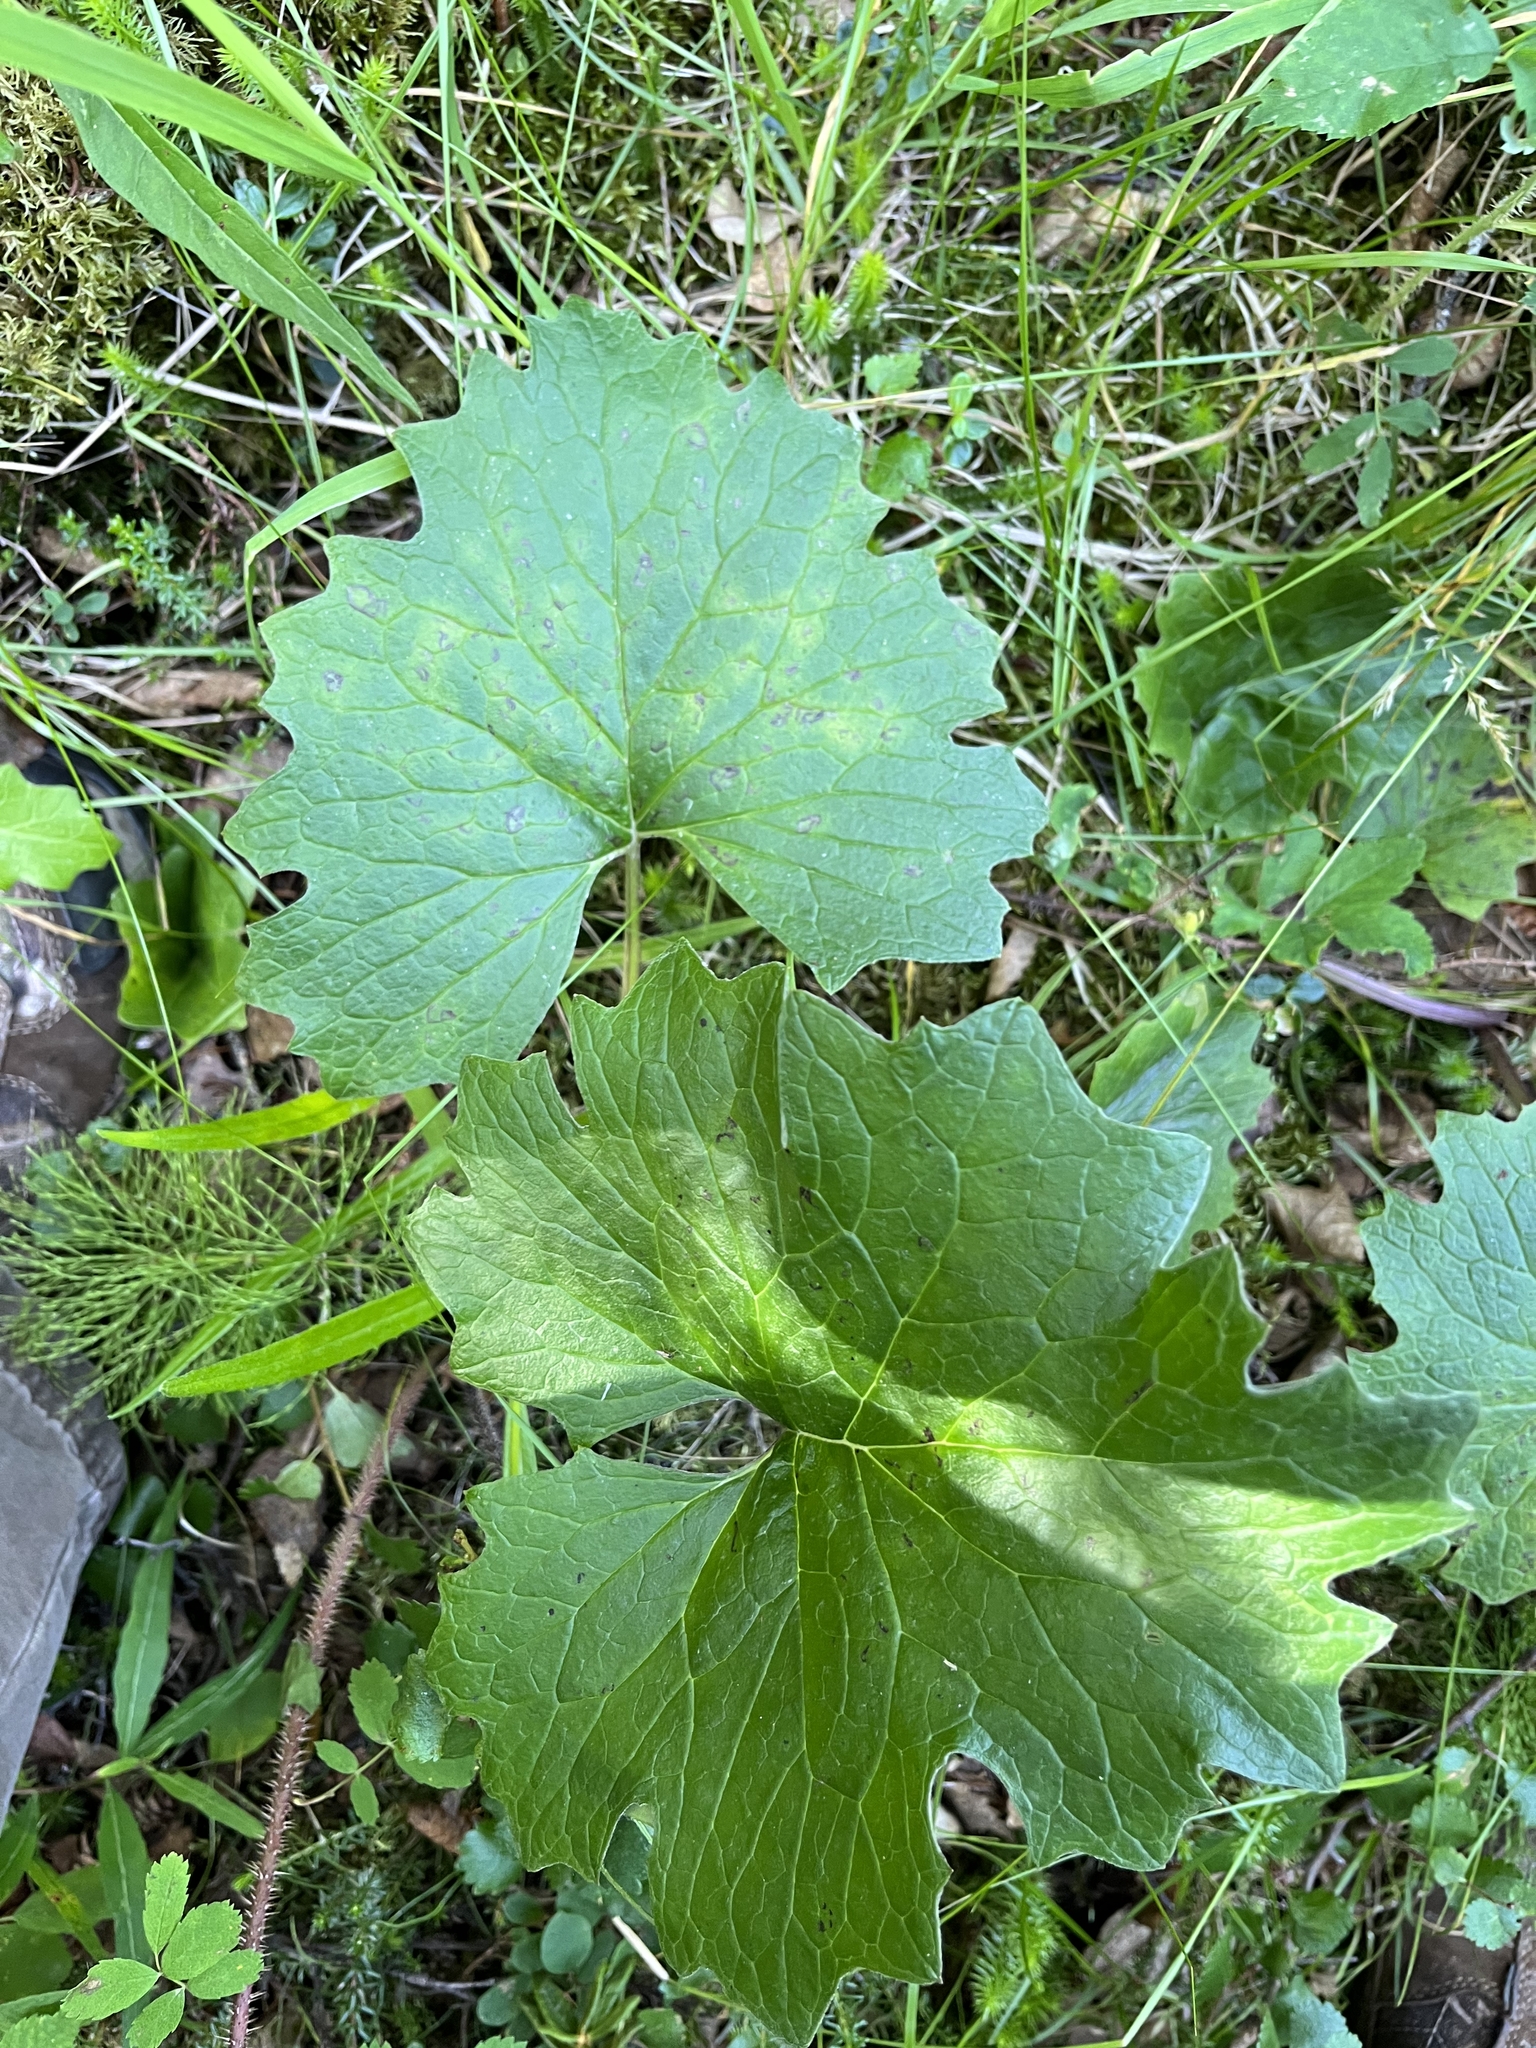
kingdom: Plantae
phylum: Tracheophyta
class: Magnoliopsida
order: Asterales
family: Asteraceae
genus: Petasites
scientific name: Petasites frigidus
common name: Arctic butterbur
